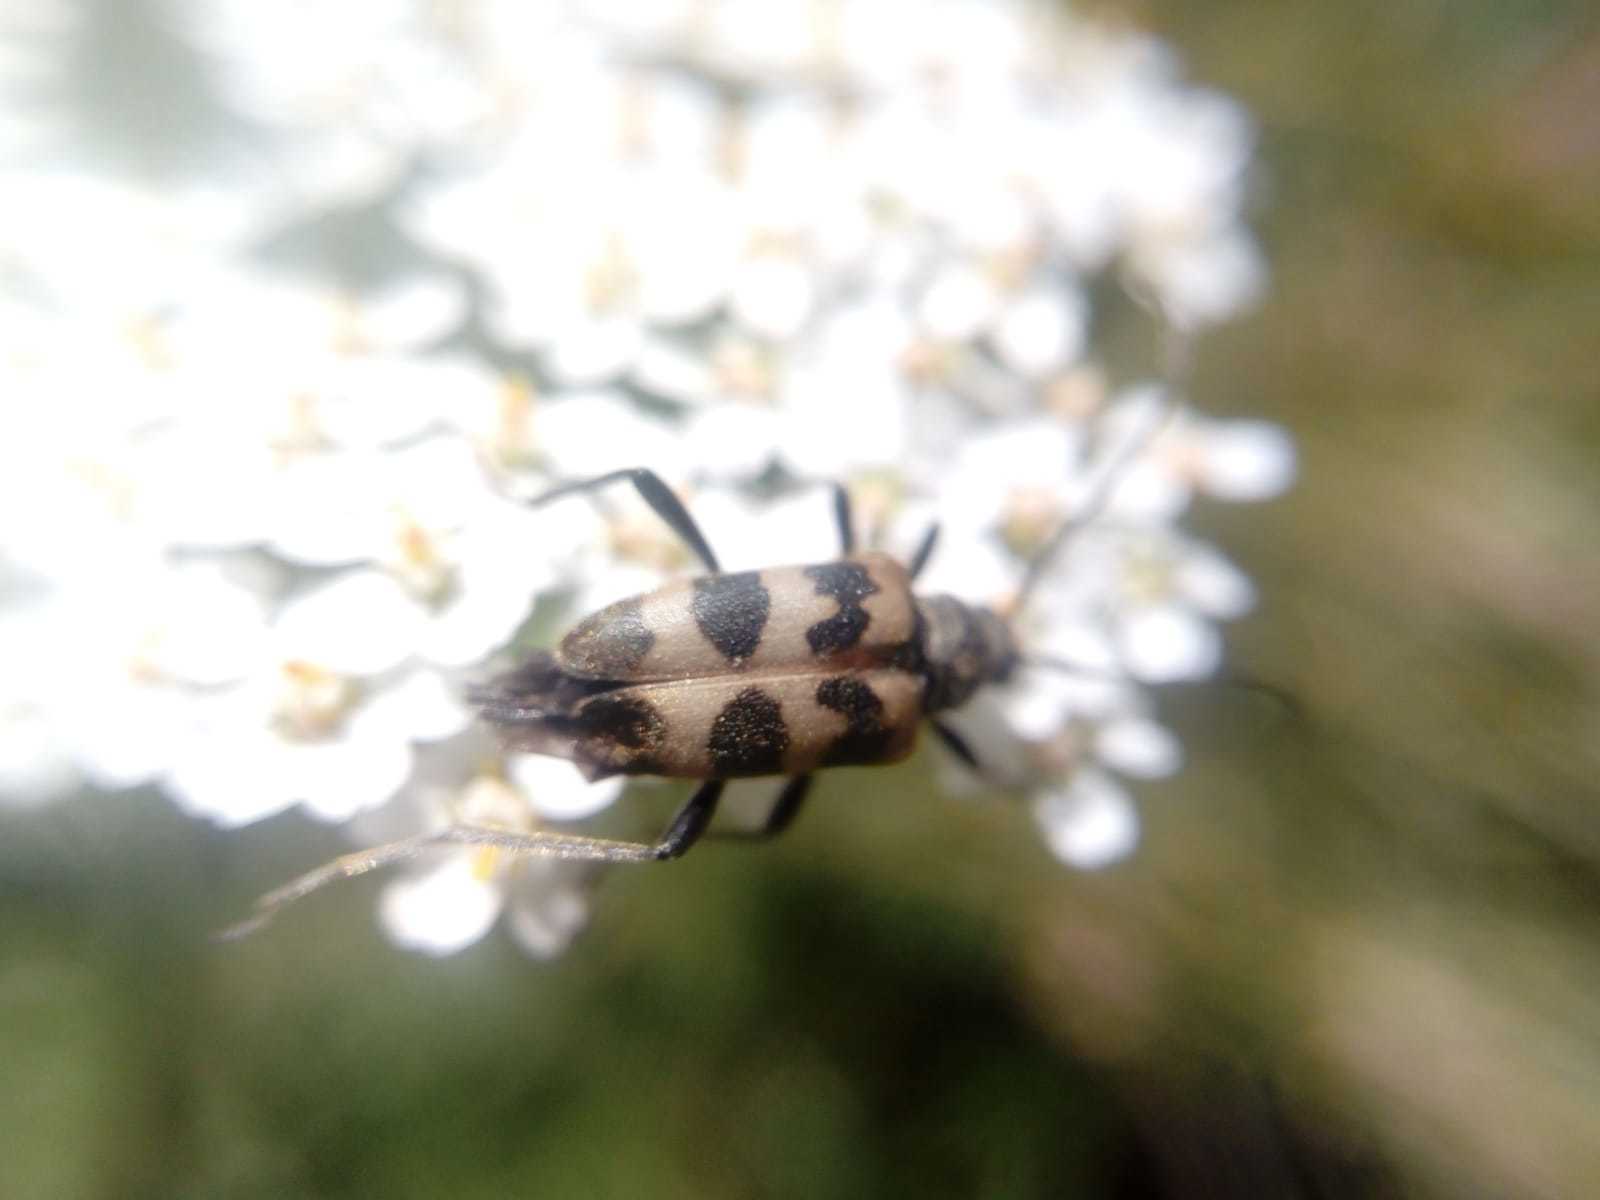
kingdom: Animalia
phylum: Arthropoda
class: Insecta
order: Coleoptera
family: Cerambycidae
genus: Pachytodes
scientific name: Pachytodes cerambyciformis
